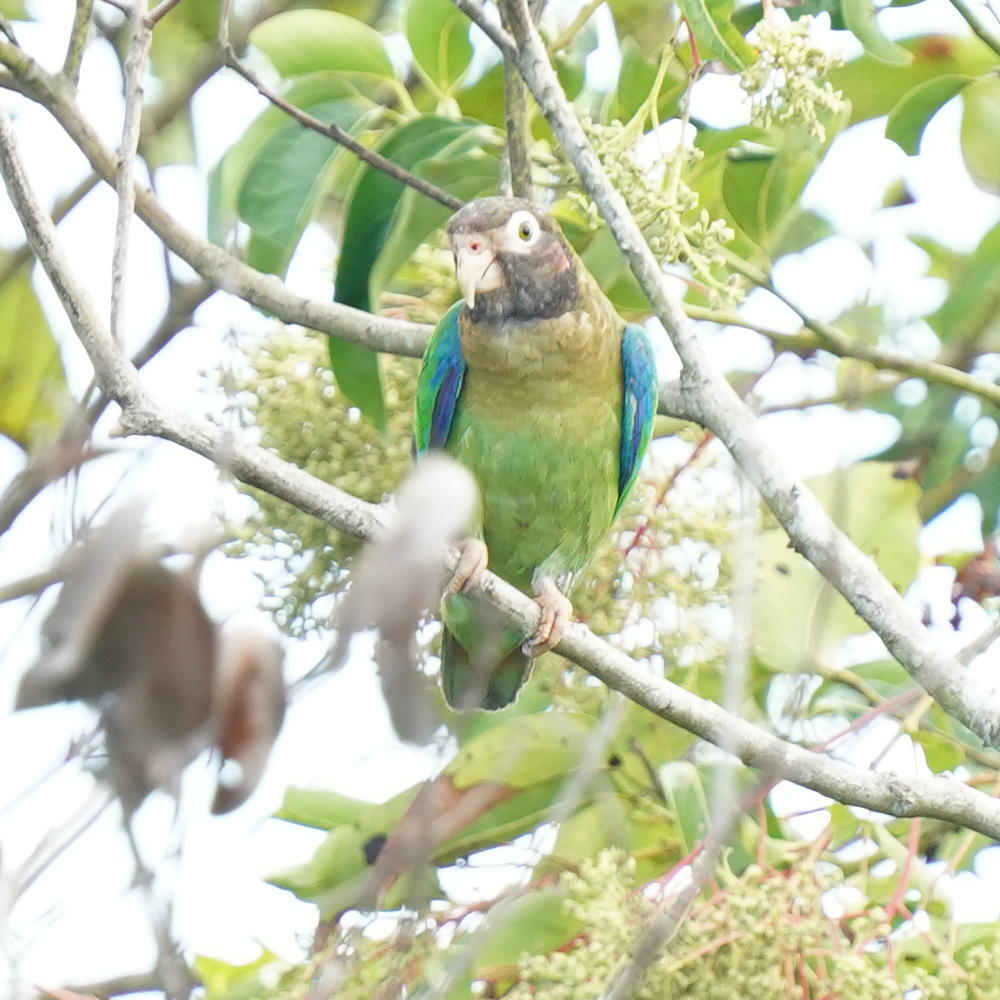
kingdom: Animalia
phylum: Chordata
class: Aves
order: Psittaciformes
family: Psittacidae
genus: Pionopsitta
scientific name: Pionopsitta haematotis
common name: Brown-hooded parrot
